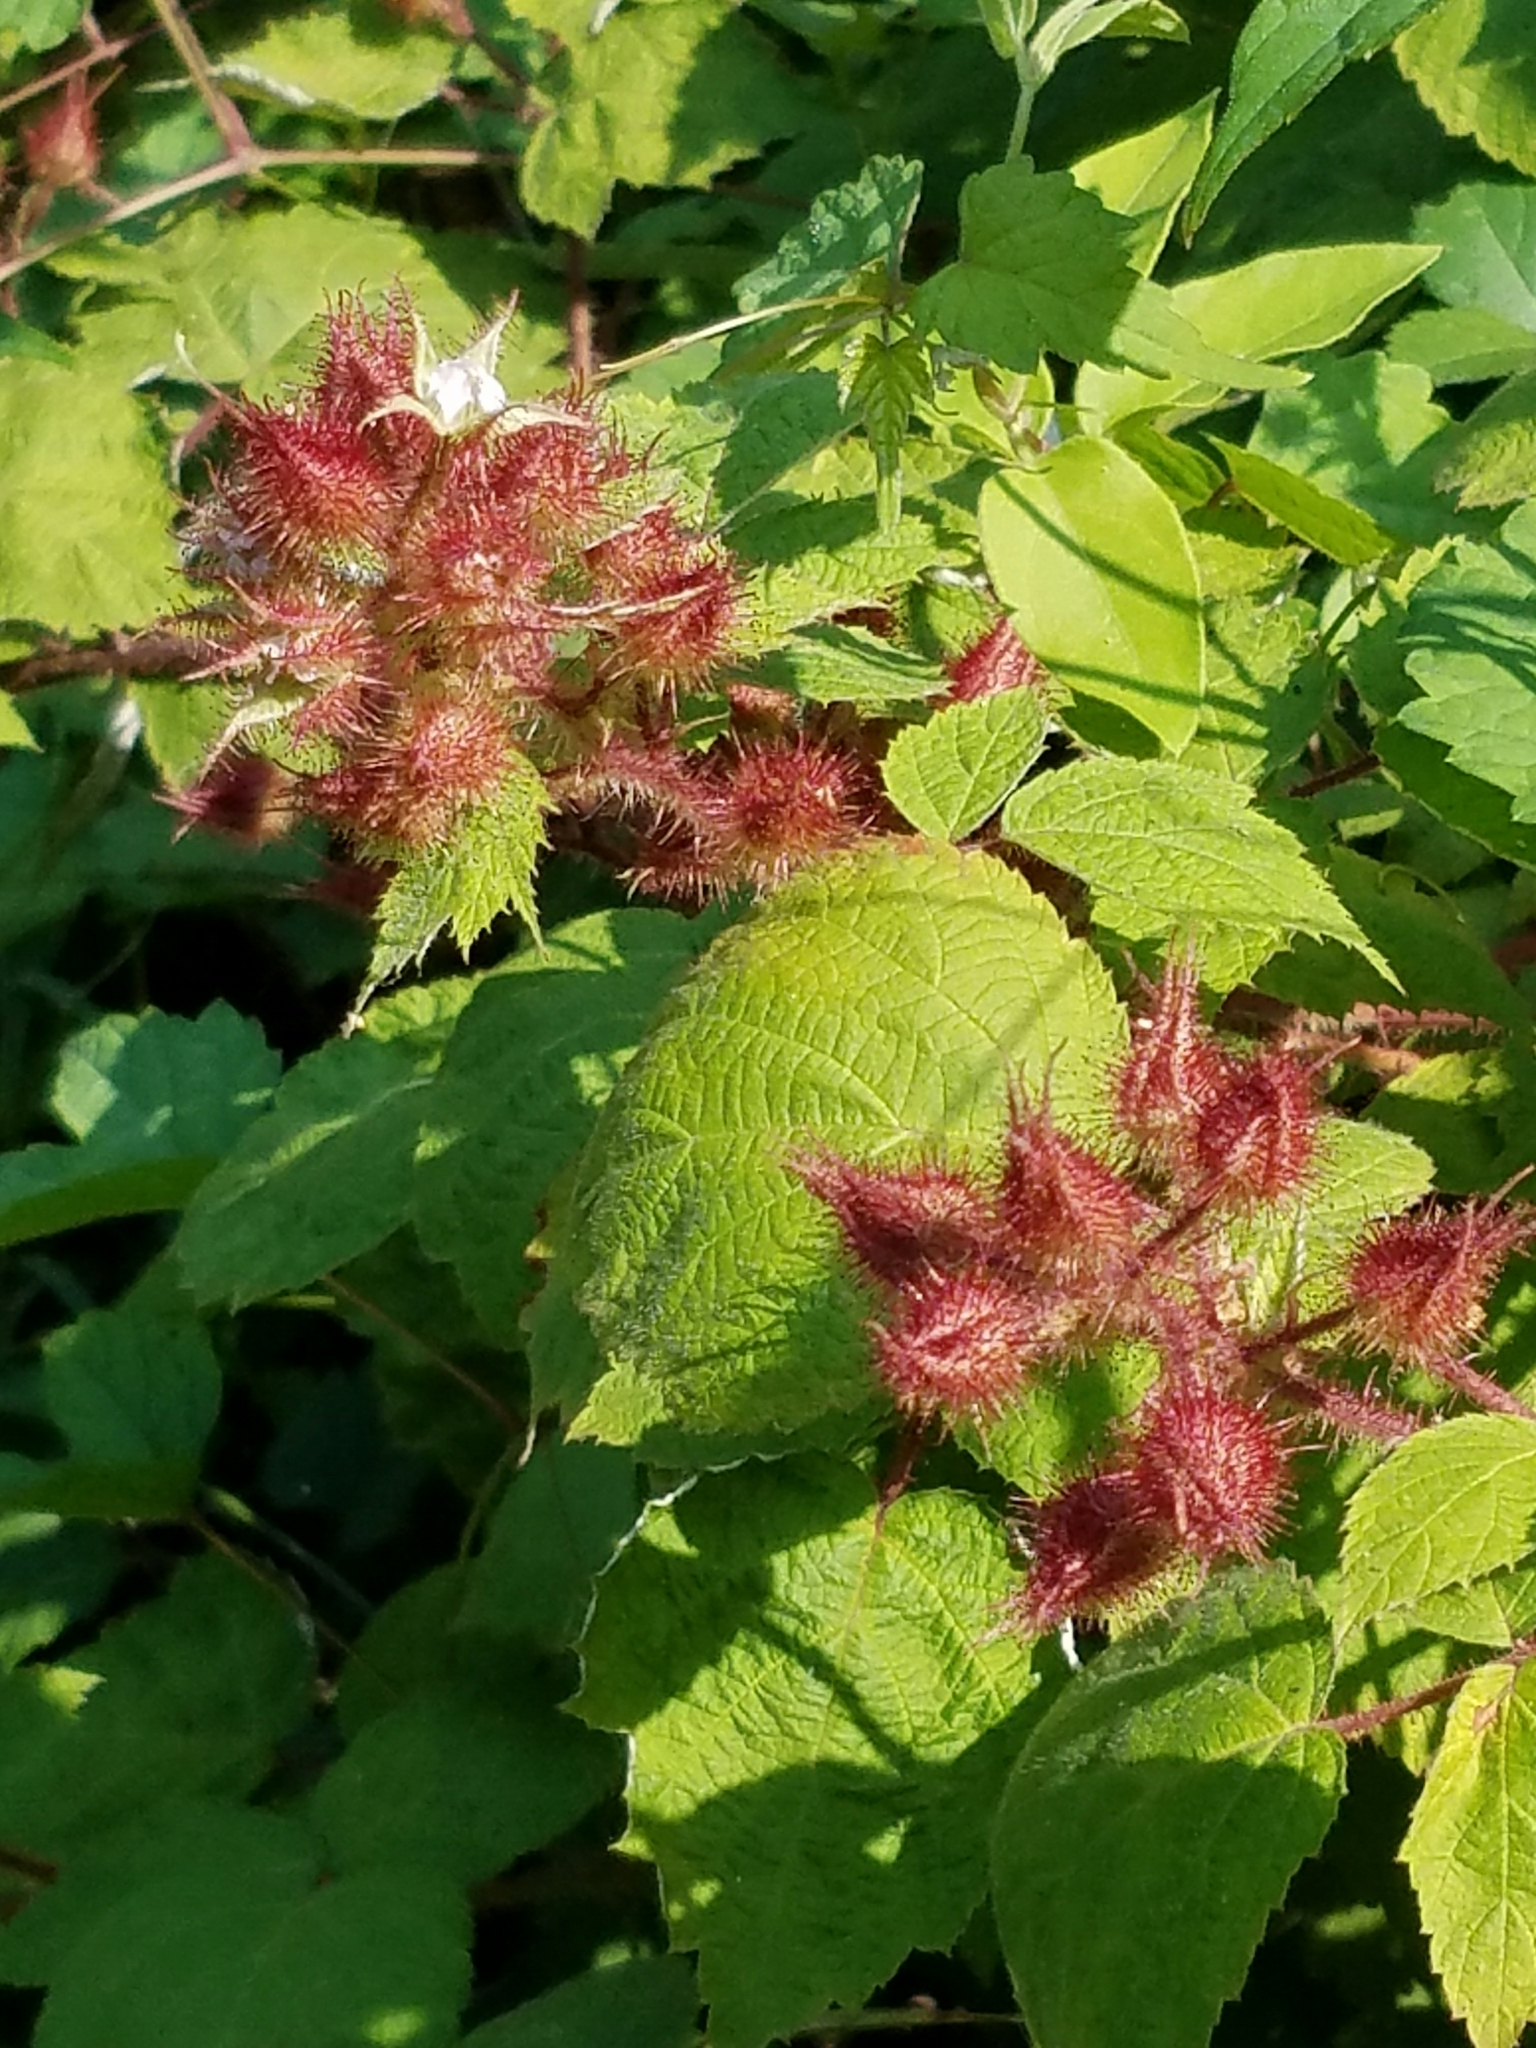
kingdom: Plantae
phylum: Tracheophyta
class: Magnoliopsida
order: Rosales
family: Rosaceae
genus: Rubus
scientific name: Rubus phoenicolasius
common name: Japanese wineberry
